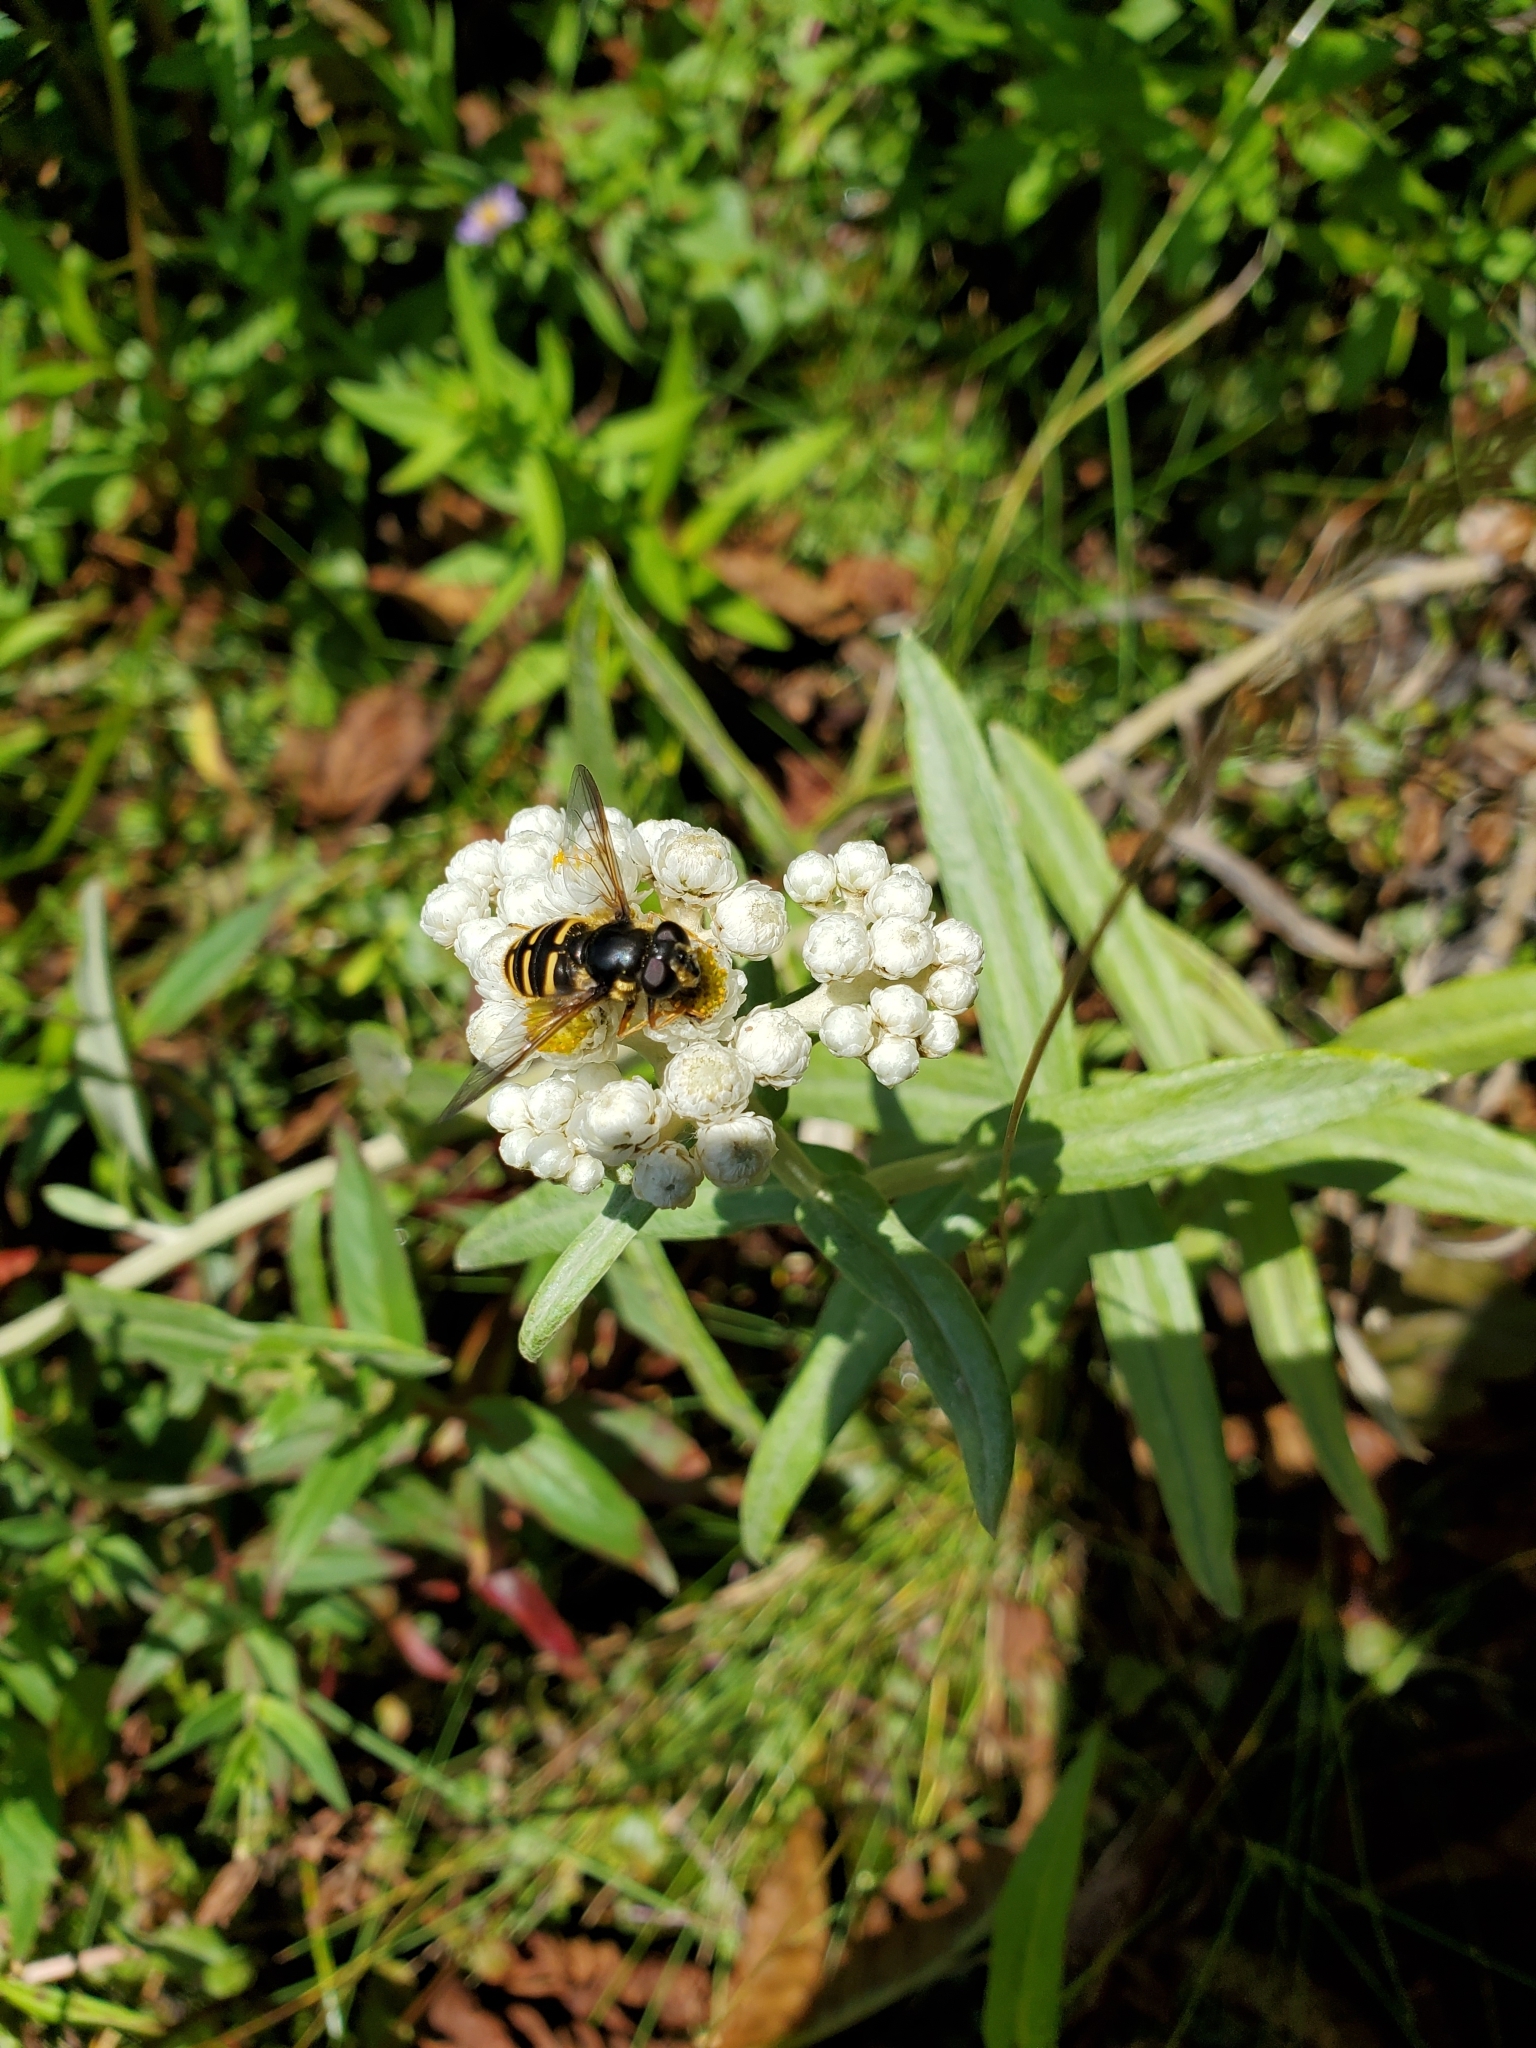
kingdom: Plantae
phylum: Tracheophyta
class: Magnoliopsida
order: Asterales
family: Asteraceae
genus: Anaphalis
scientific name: Anaphalis margaritacea
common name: Pearly everlasting
